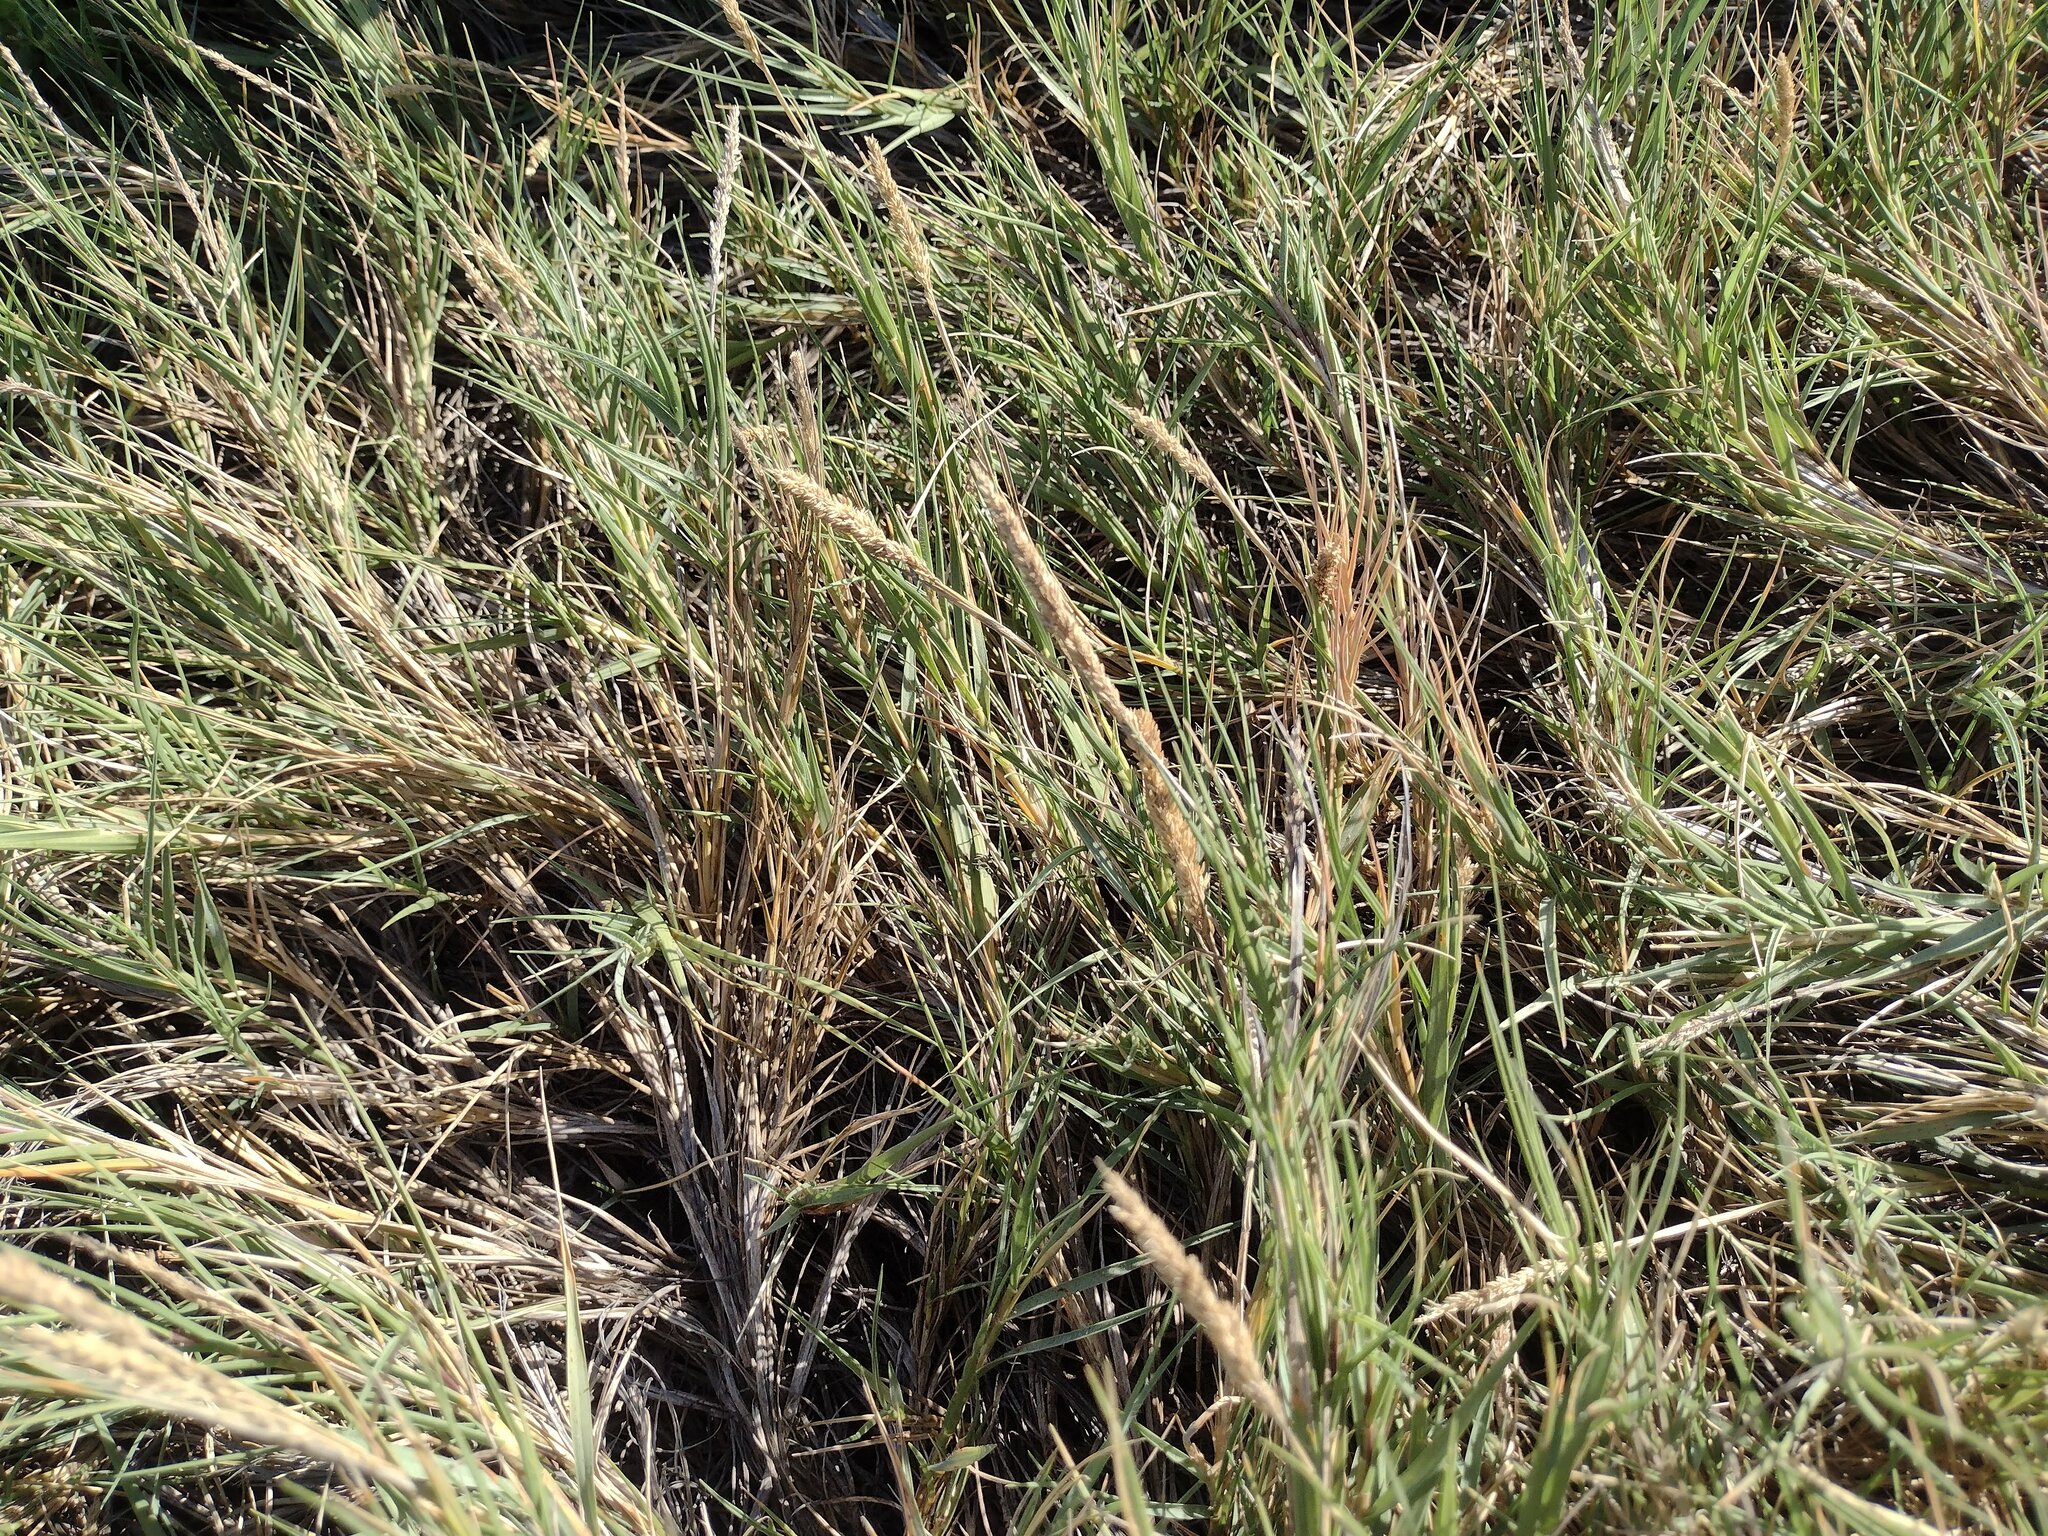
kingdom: Plantae
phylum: Tracheophyta
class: Liliopsida
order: Poales
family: Poaceae
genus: Sporobolus
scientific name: Sporobolus virginicus
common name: Beach dropseed
